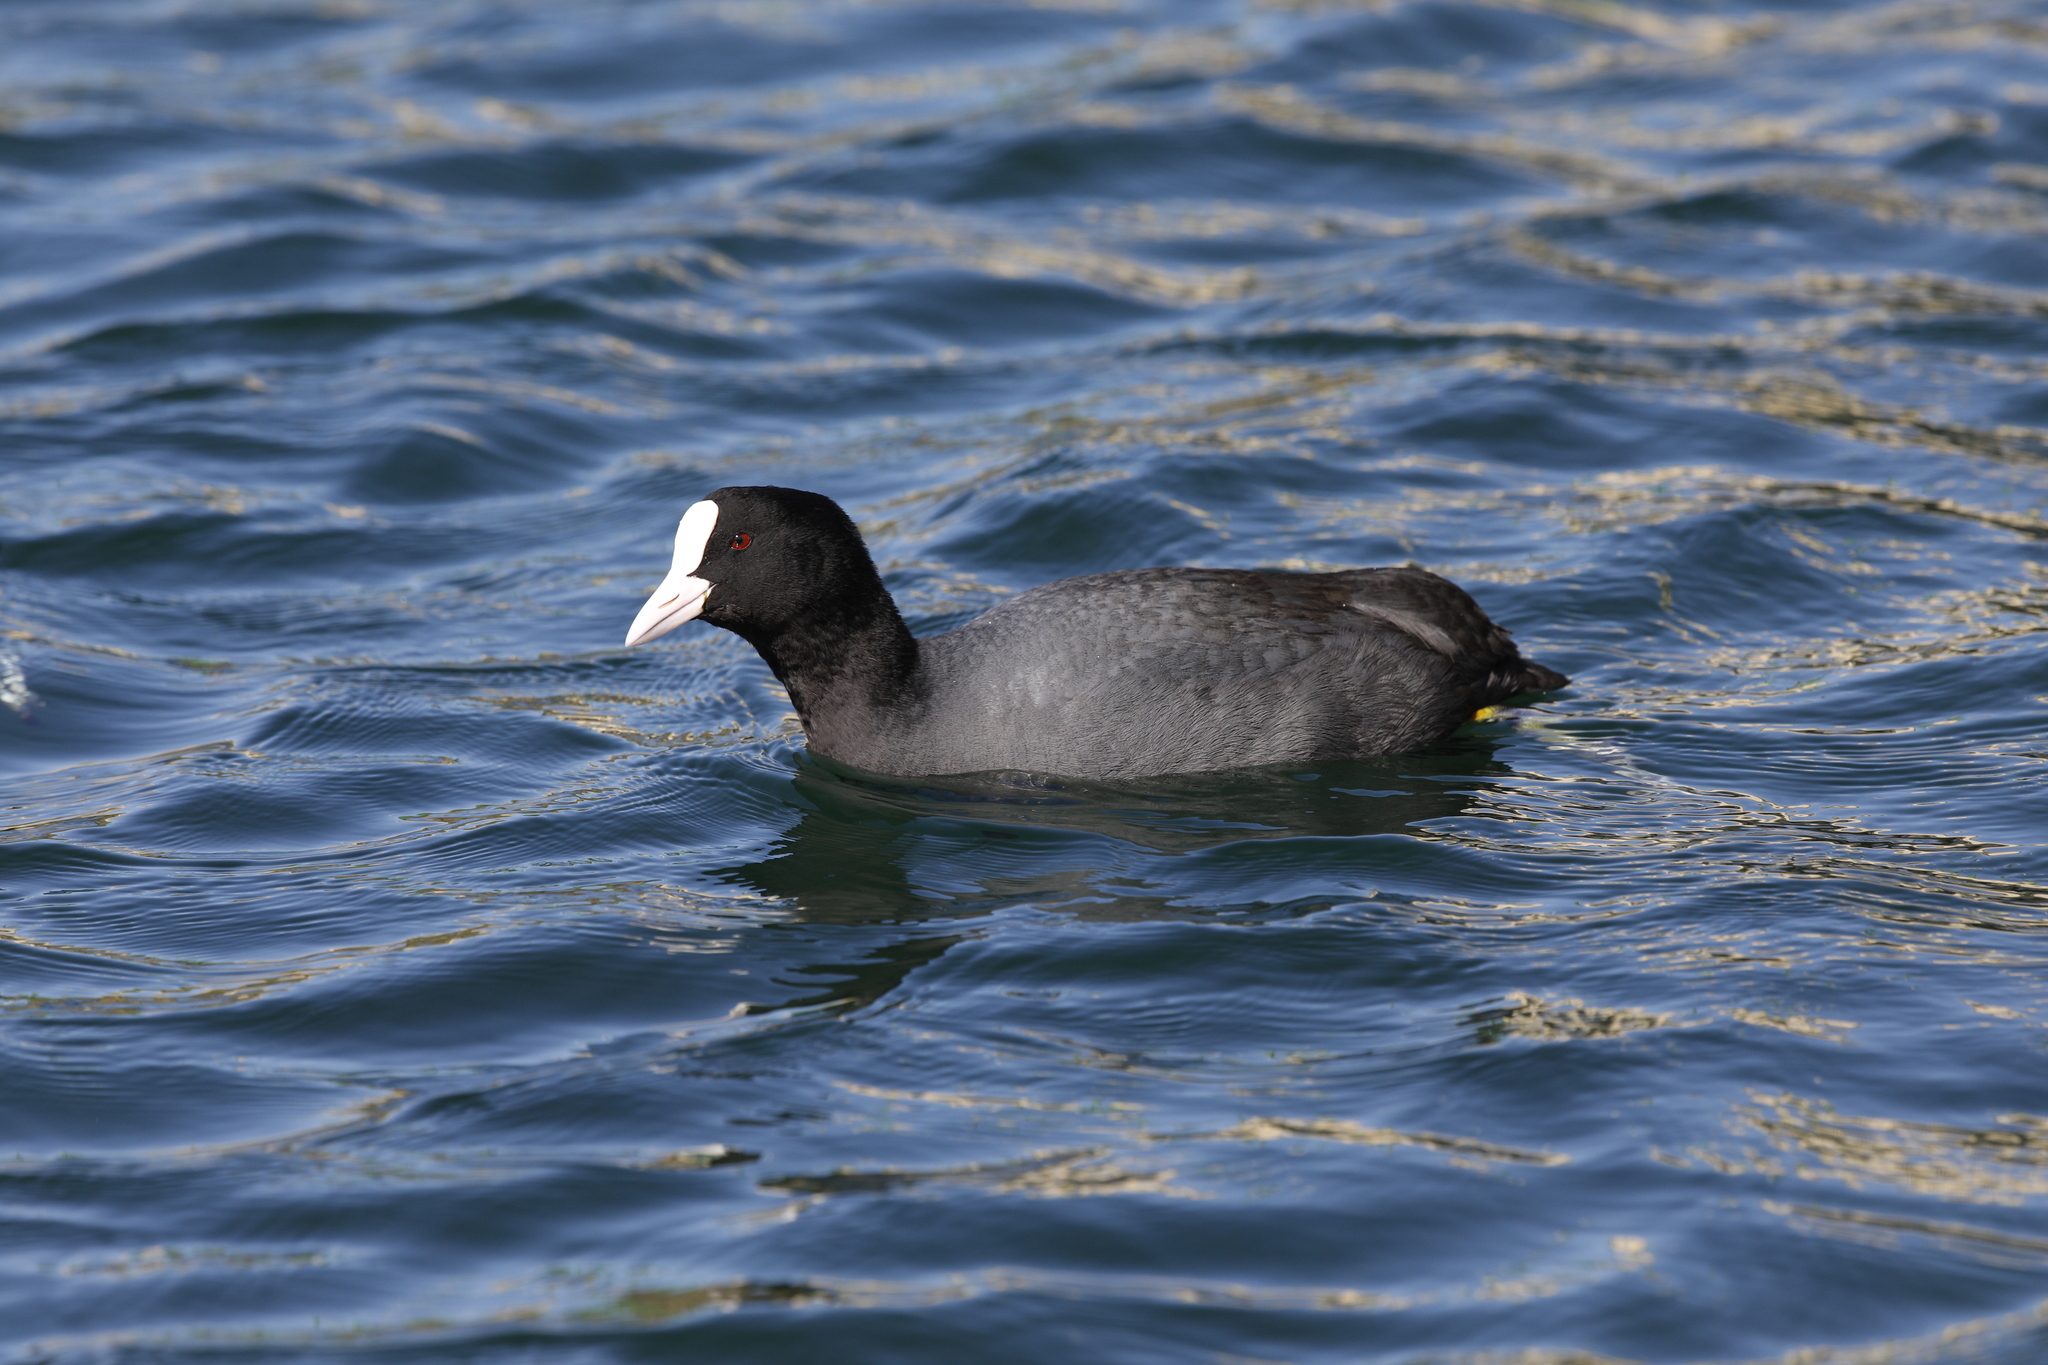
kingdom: Animalia
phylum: Chordata
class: Aves
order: Gruiformes
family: Rallidae
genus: Fulica
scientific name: Fulica atra
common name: Eurasian coot
